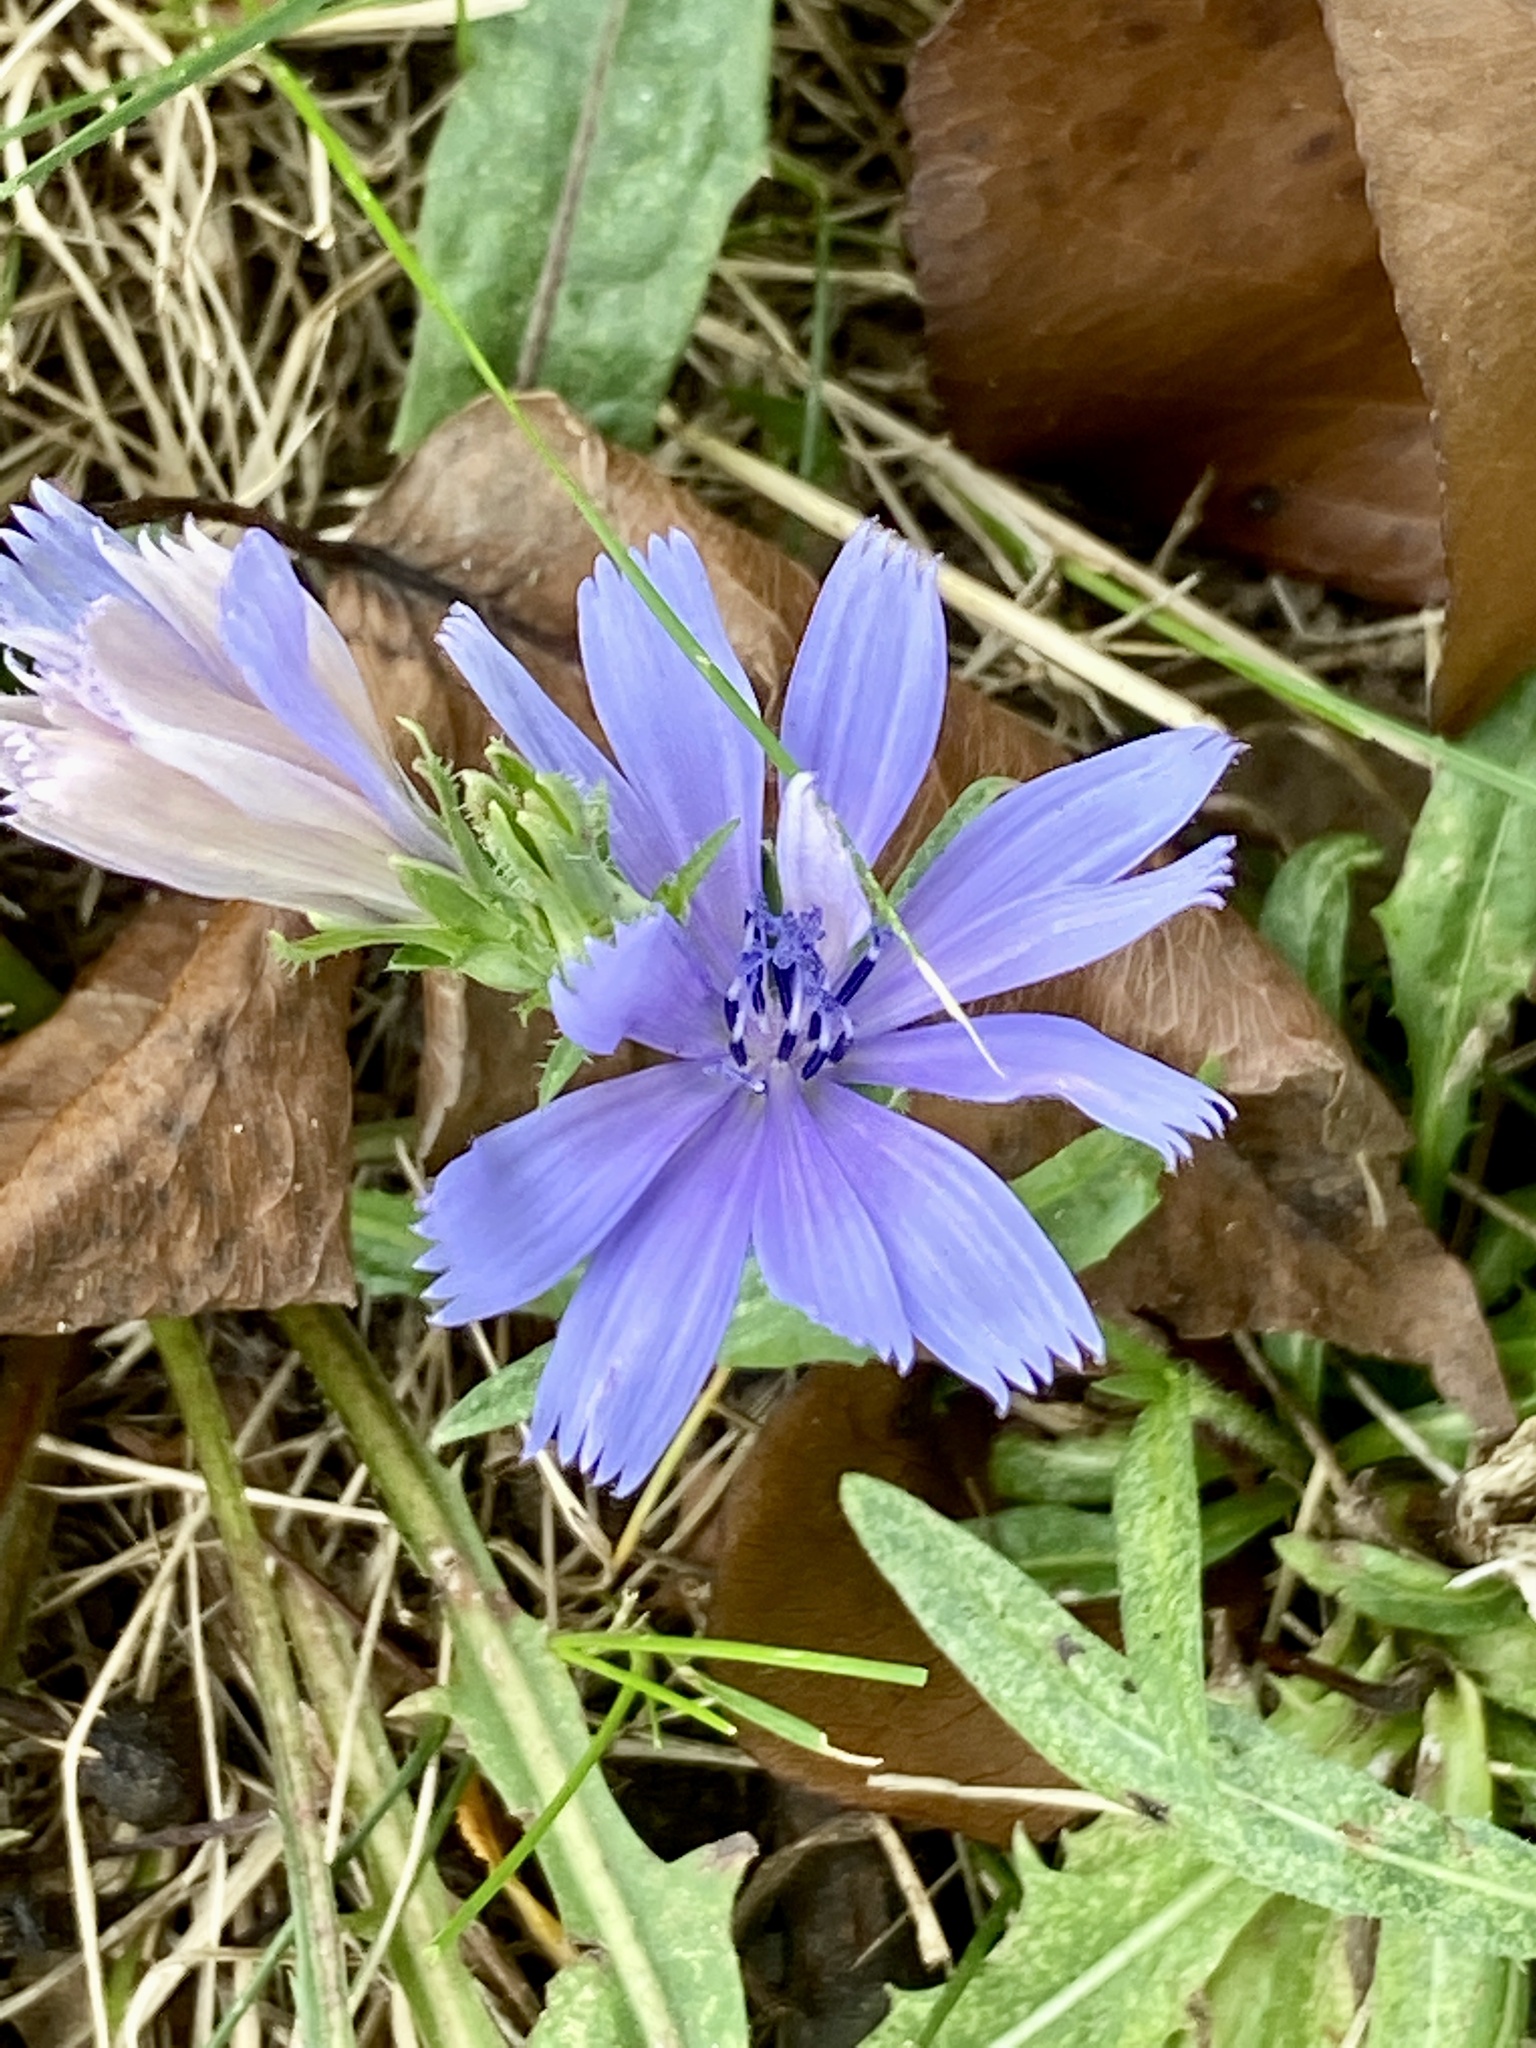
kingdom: Plantae
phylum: Tracheophyta
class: Magnoliopsida
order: Asterales
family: Asteraceae
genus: Cichorium
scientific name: Cichorium intybus
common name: Chicory
